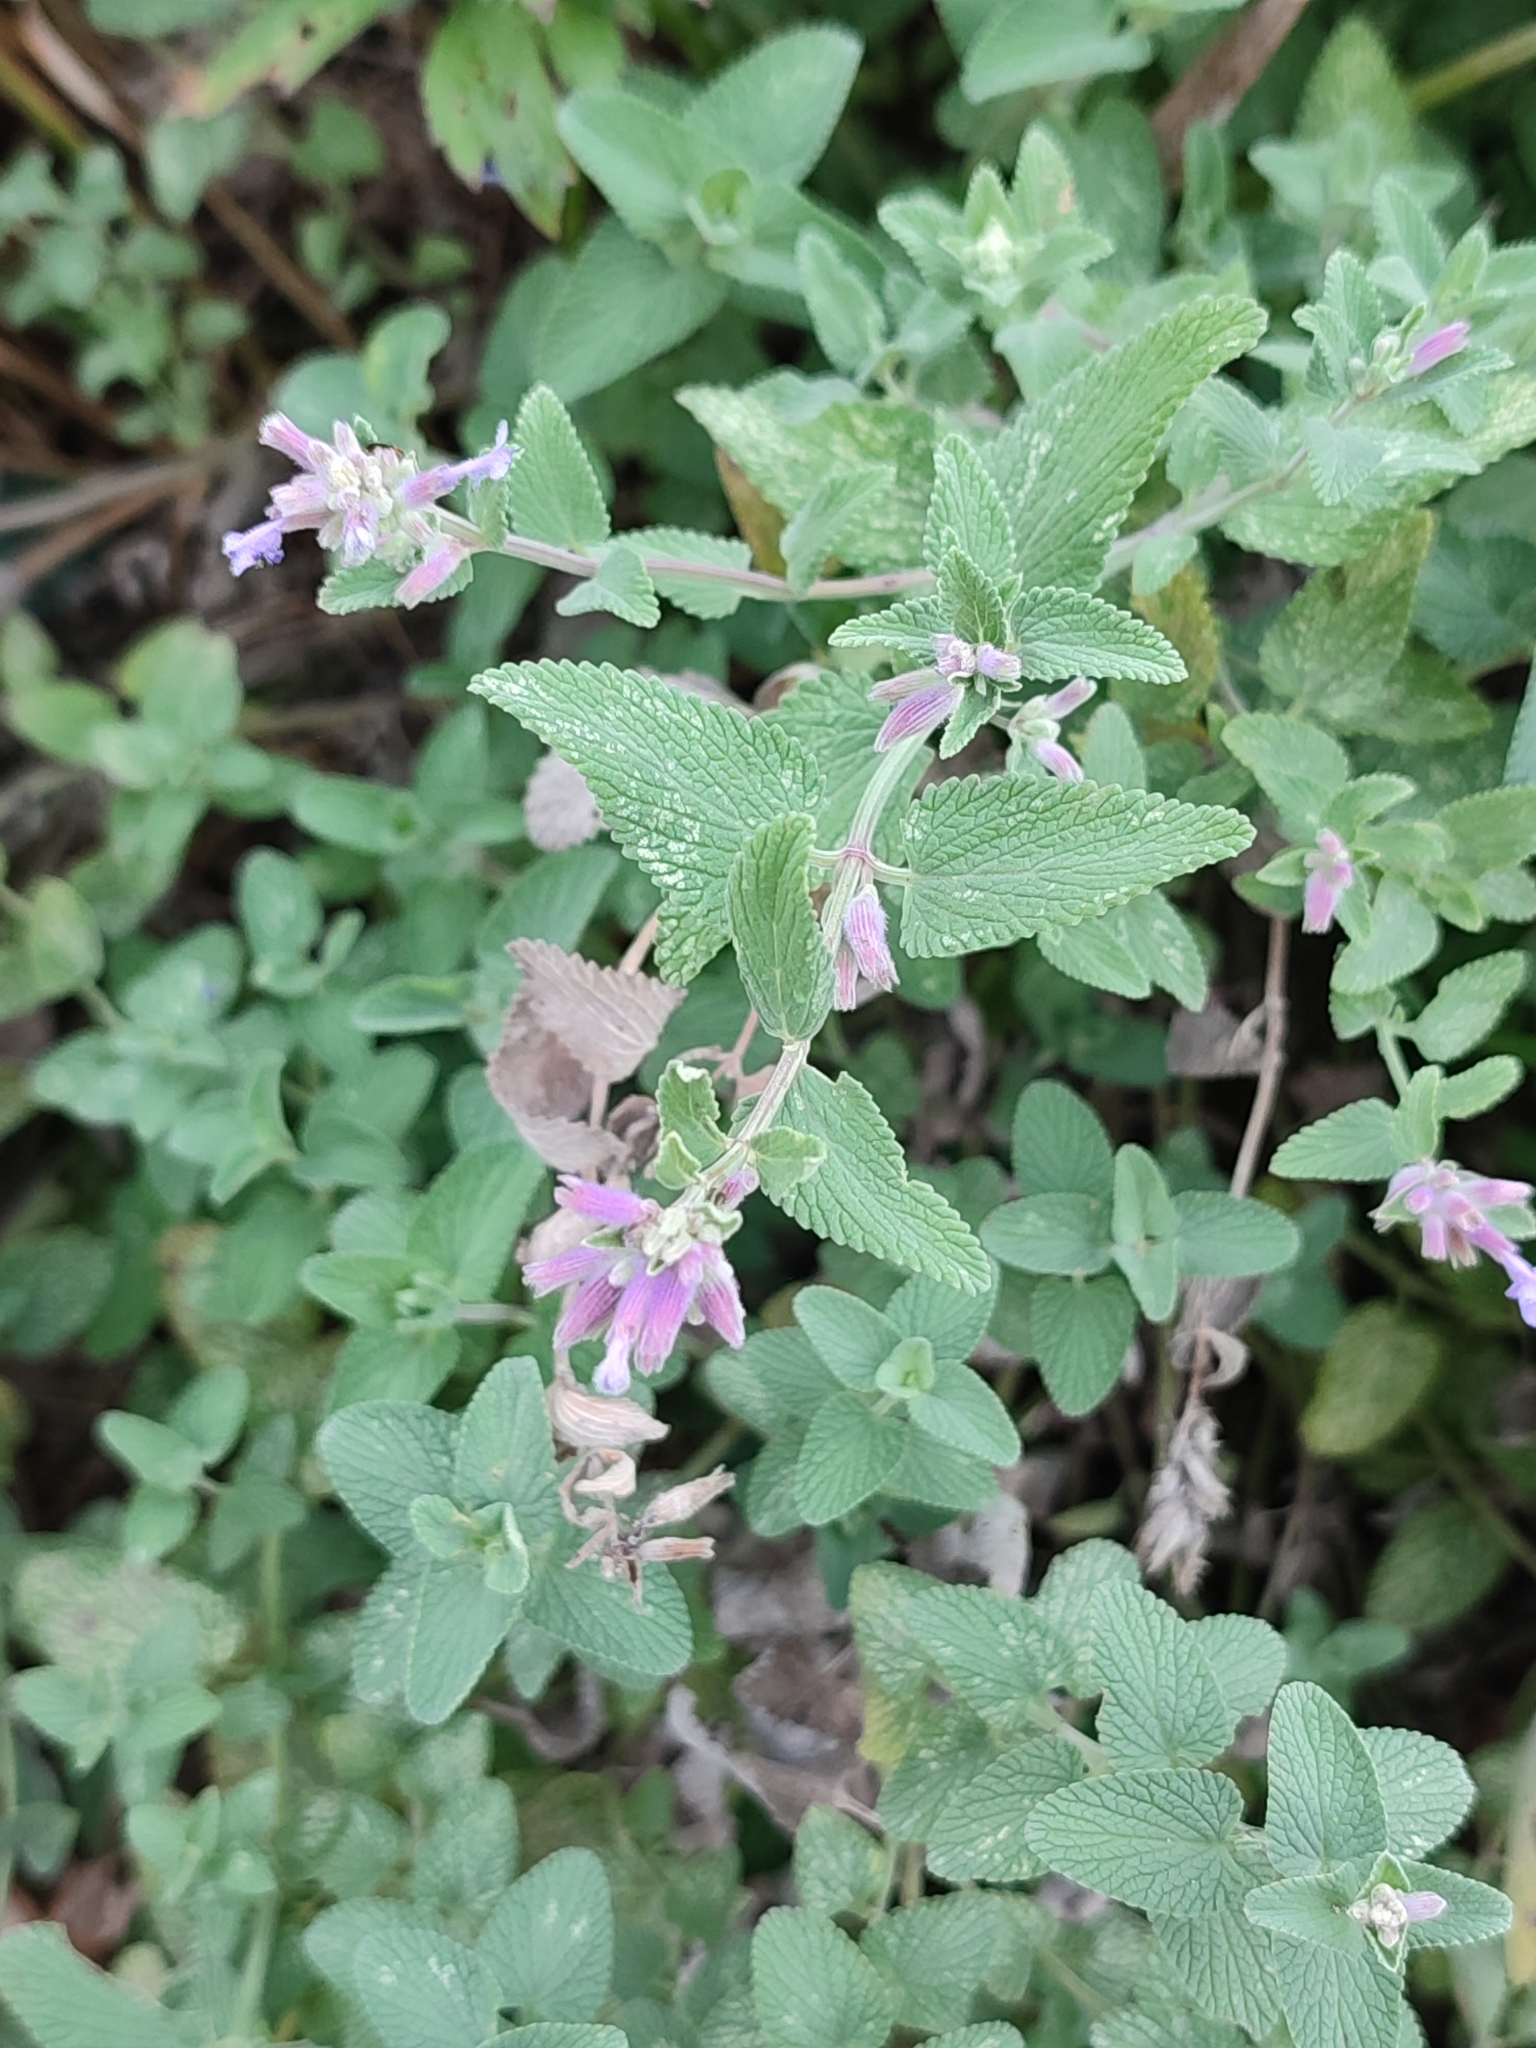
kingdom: Plantae
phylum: Tracheophyta
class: Magnoliopsida
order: Lamiales
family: Lamiaceae
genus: Nepeta
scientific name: Nepeta racemosa
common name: Raceme catnip
